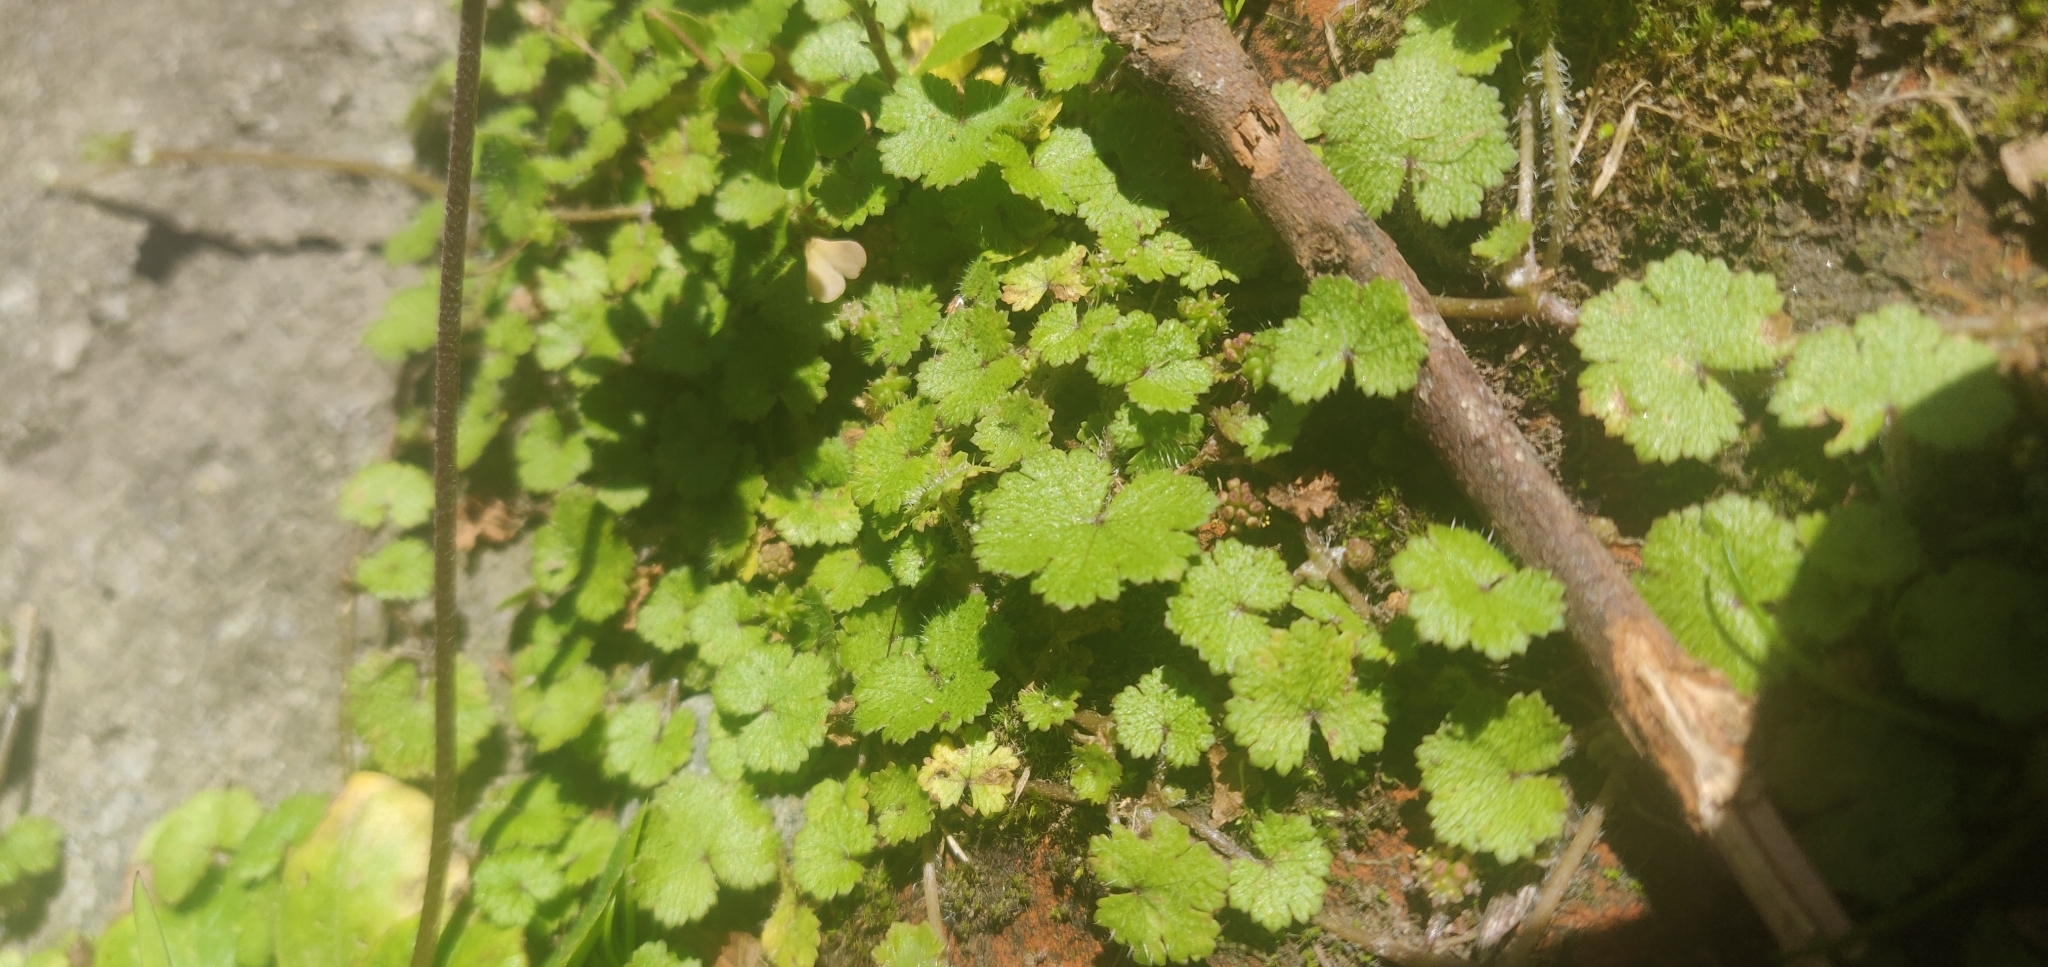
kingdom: Plantae
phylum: Tracheophyta
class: Magnoliopsida
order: Apiales
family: Araliaceae
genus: Hydrocotyle
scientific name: Hydrocotyle moschata
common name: Hairy pennywort
